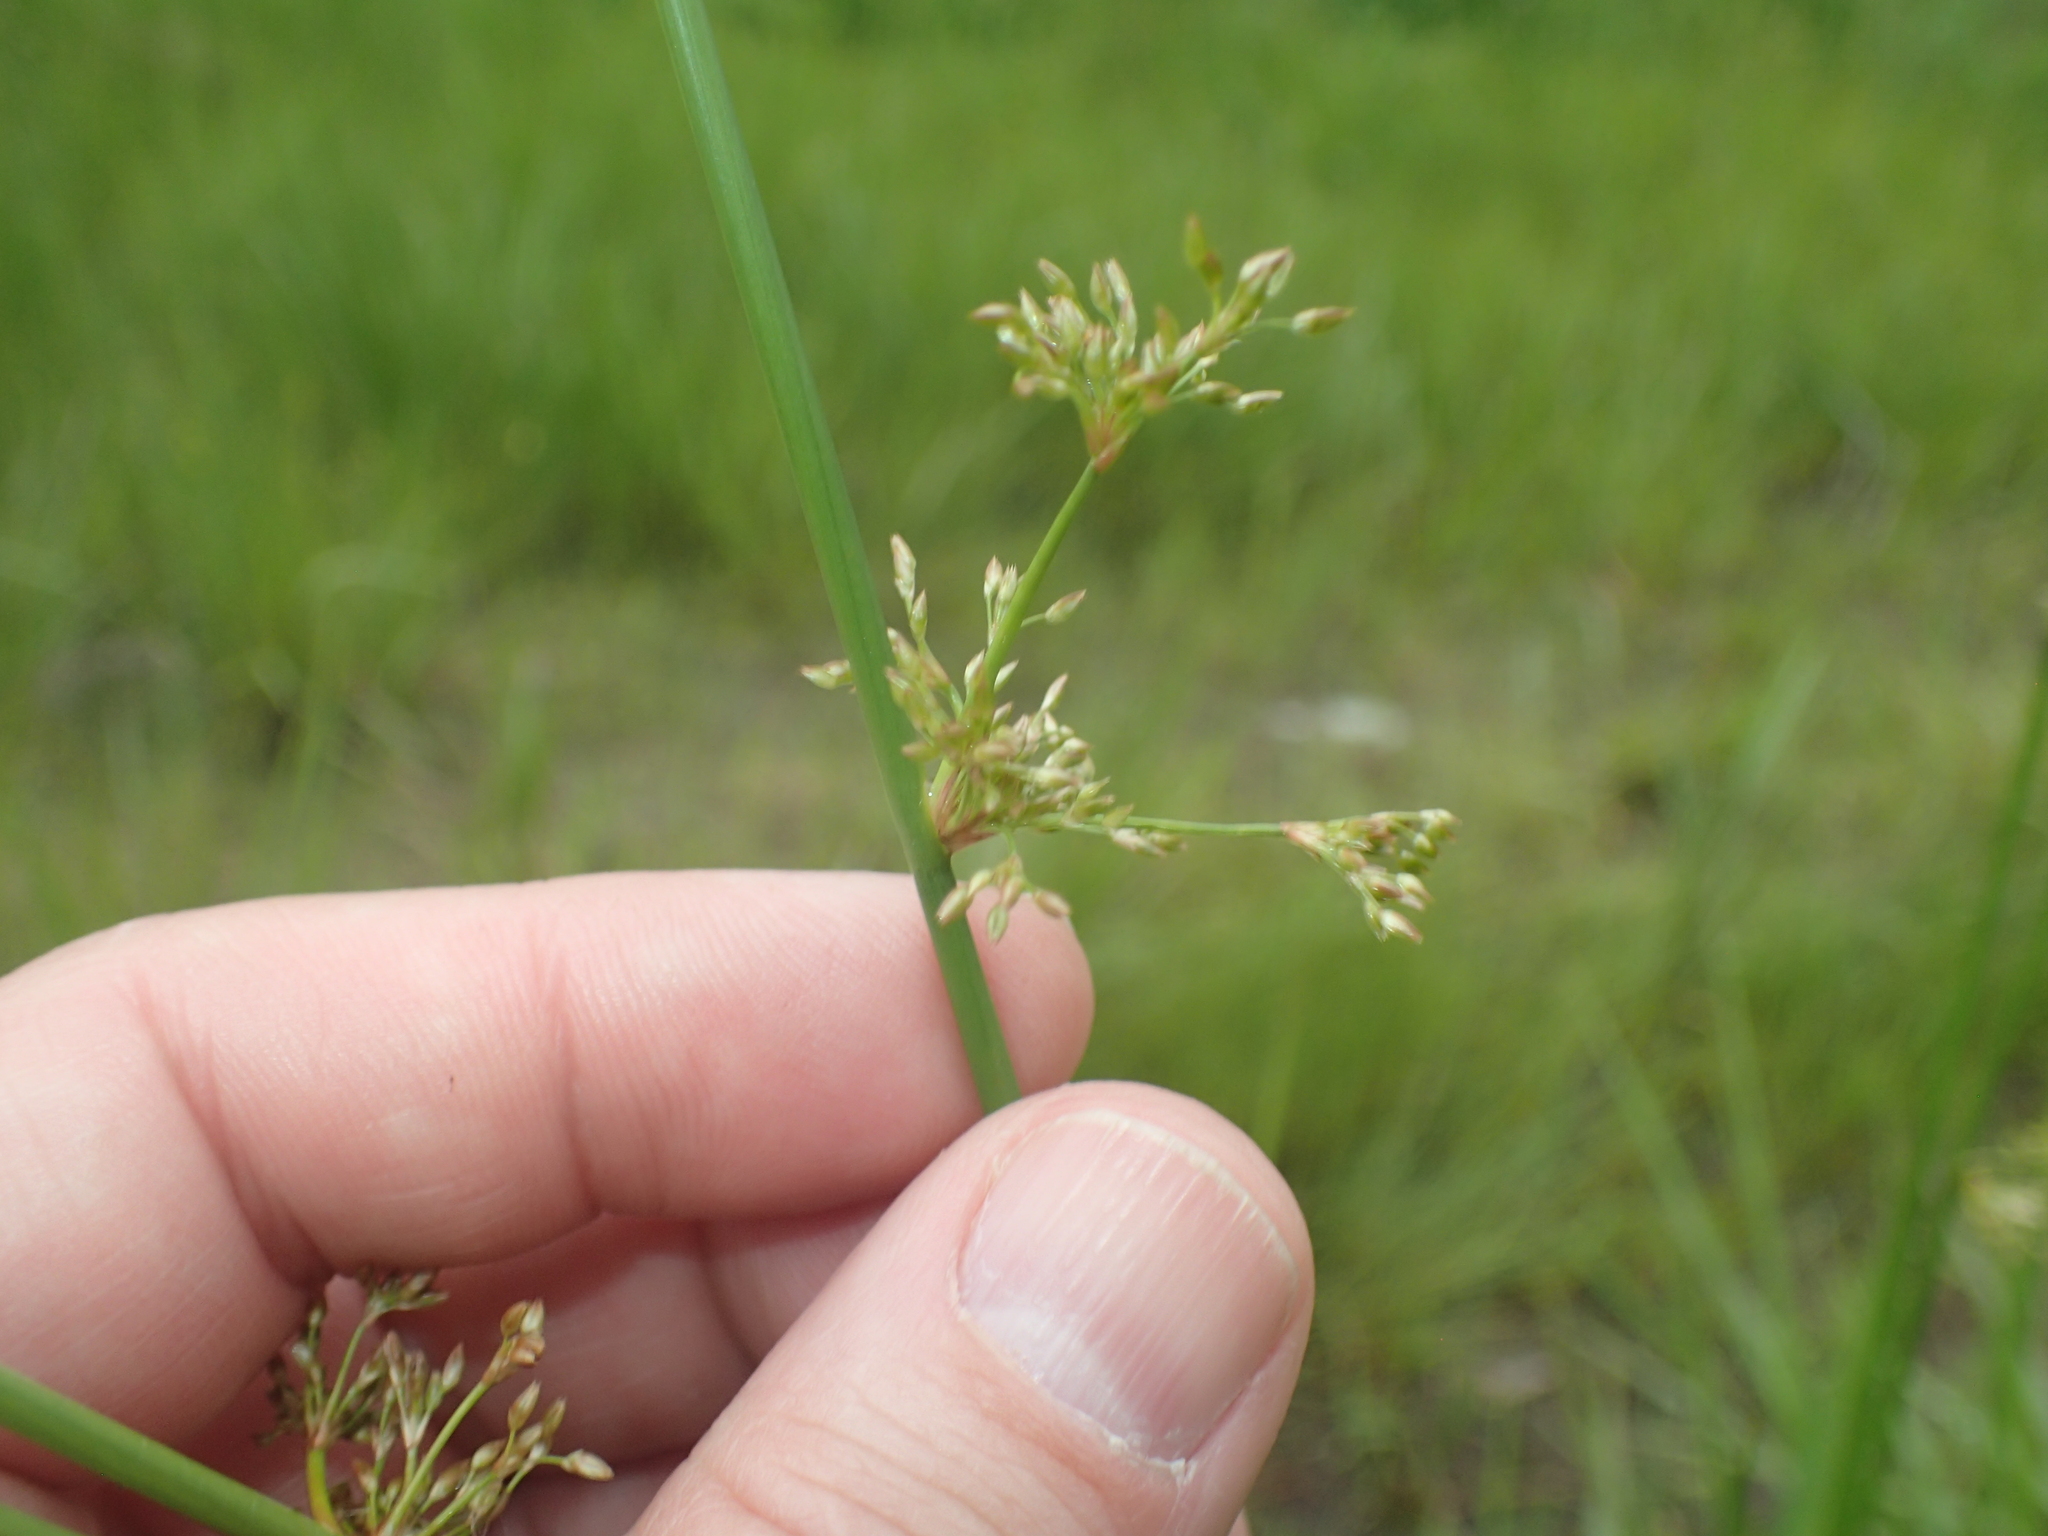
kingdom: Plantae
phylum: Tracheophyta
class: Liliopsida
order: Poales
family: Juncaceae
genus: Juncus
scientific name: Juncus pylaei
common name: Common rush
